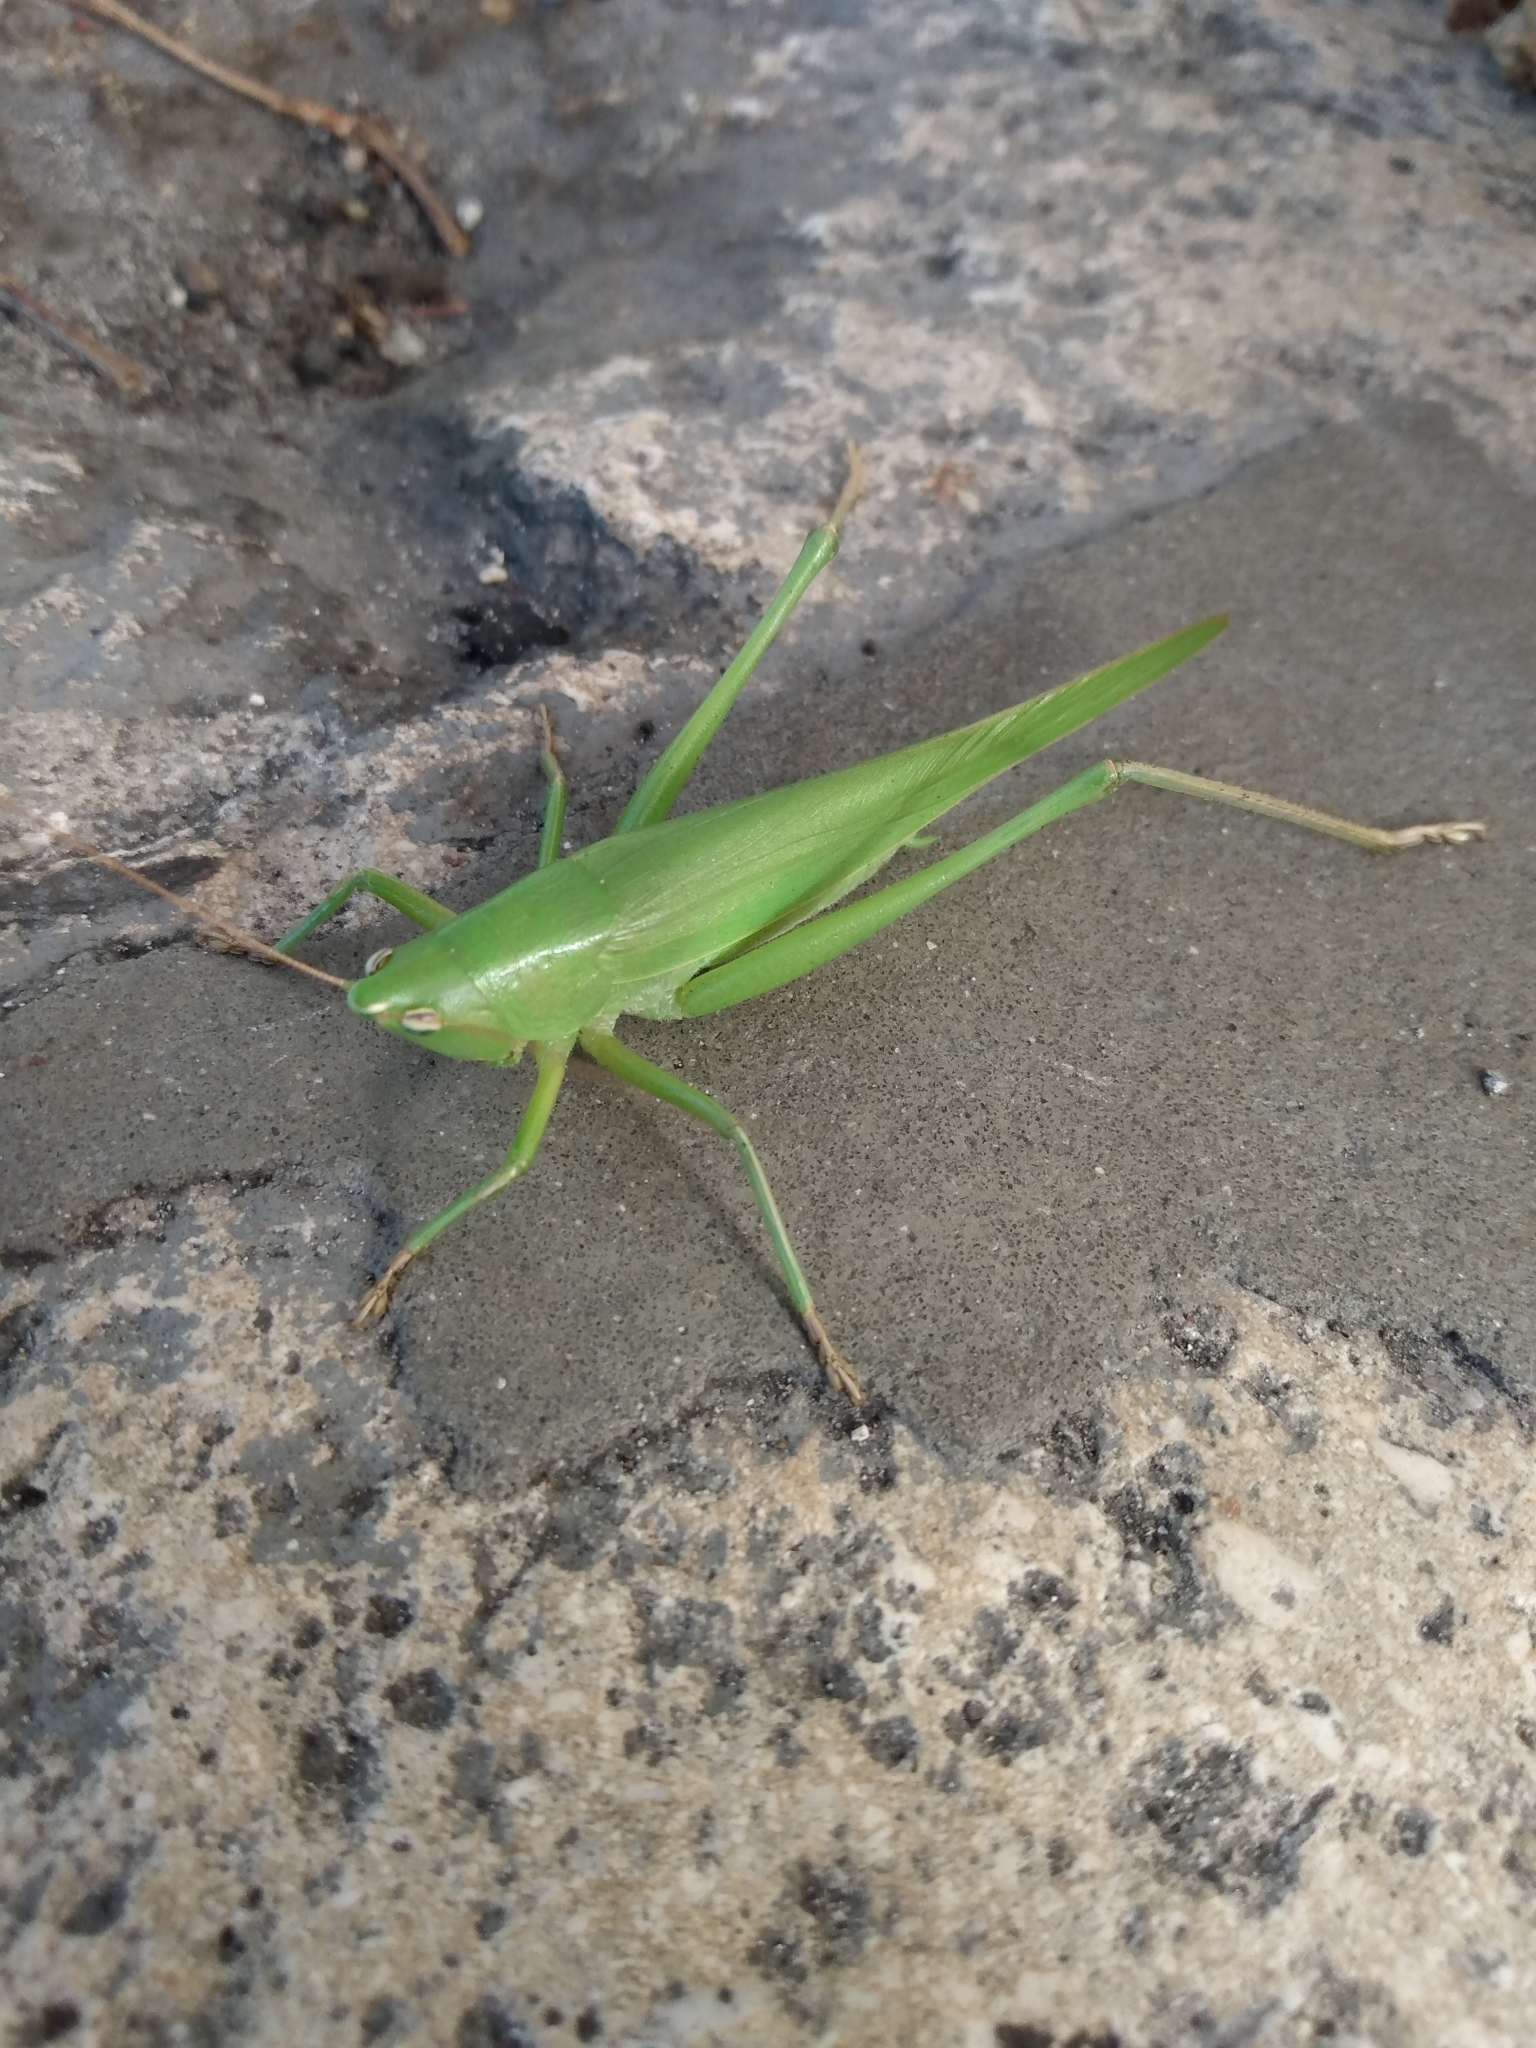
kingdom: Animalia
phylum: Arthropoda
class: Insecta
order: Orthoptera
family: Tettigoniidae
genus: Neoconocephalus
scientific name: Neoconocephalus triops
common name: Broad-tipped conehead
